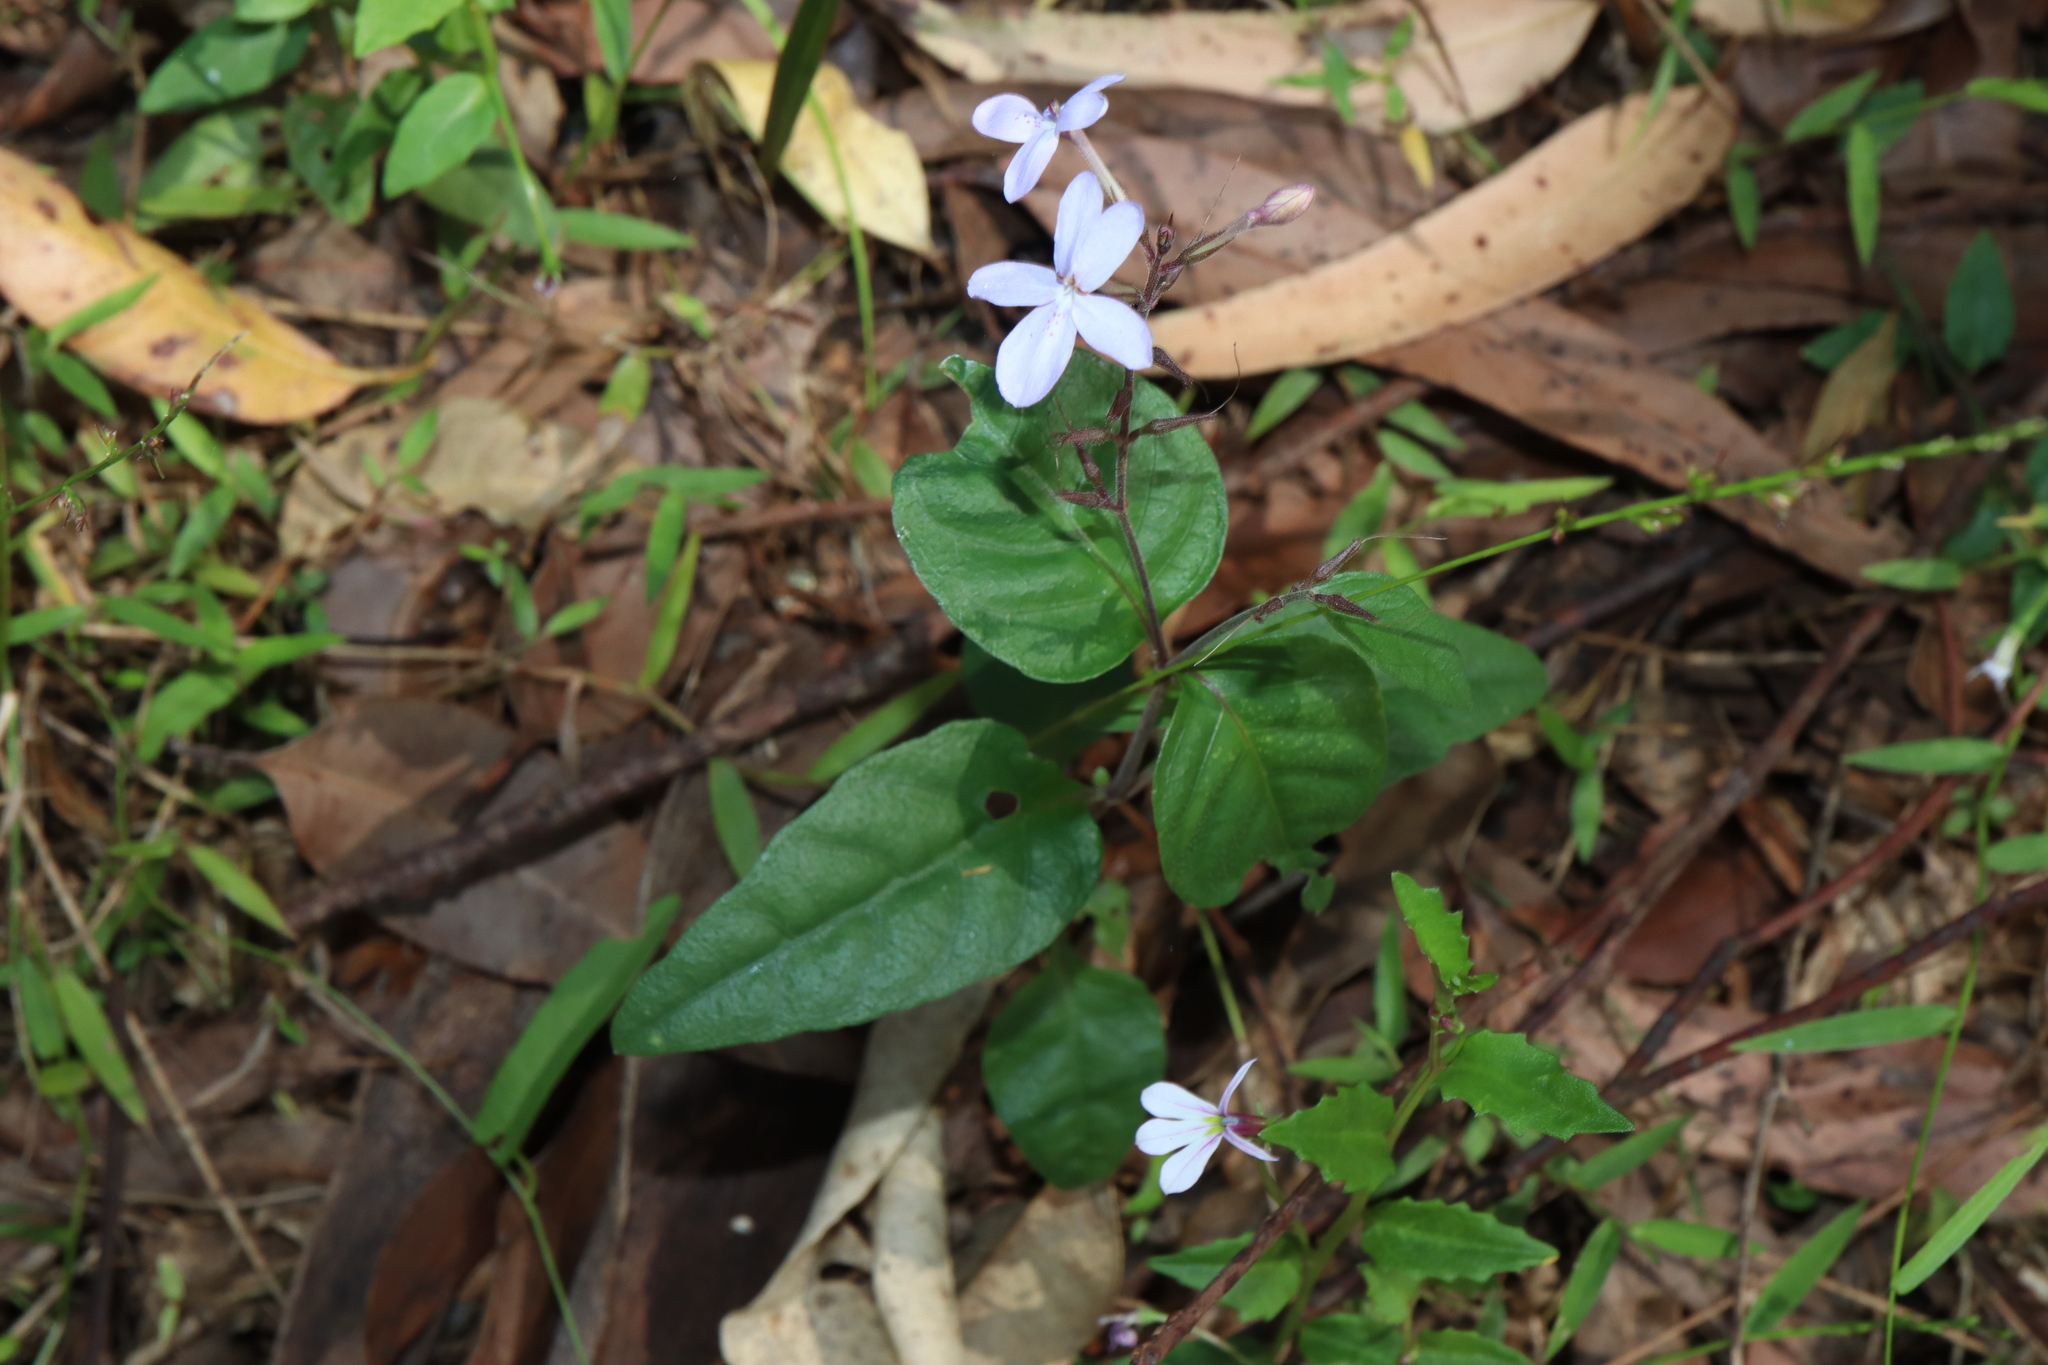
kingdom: Plantae
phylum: Tracheophyta
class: Magnoliopsida
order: Lamiales
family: Acanthaceae
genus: Pseuderanthemum
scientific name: Pseuderanthemum variabile
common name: Night and afternoon
